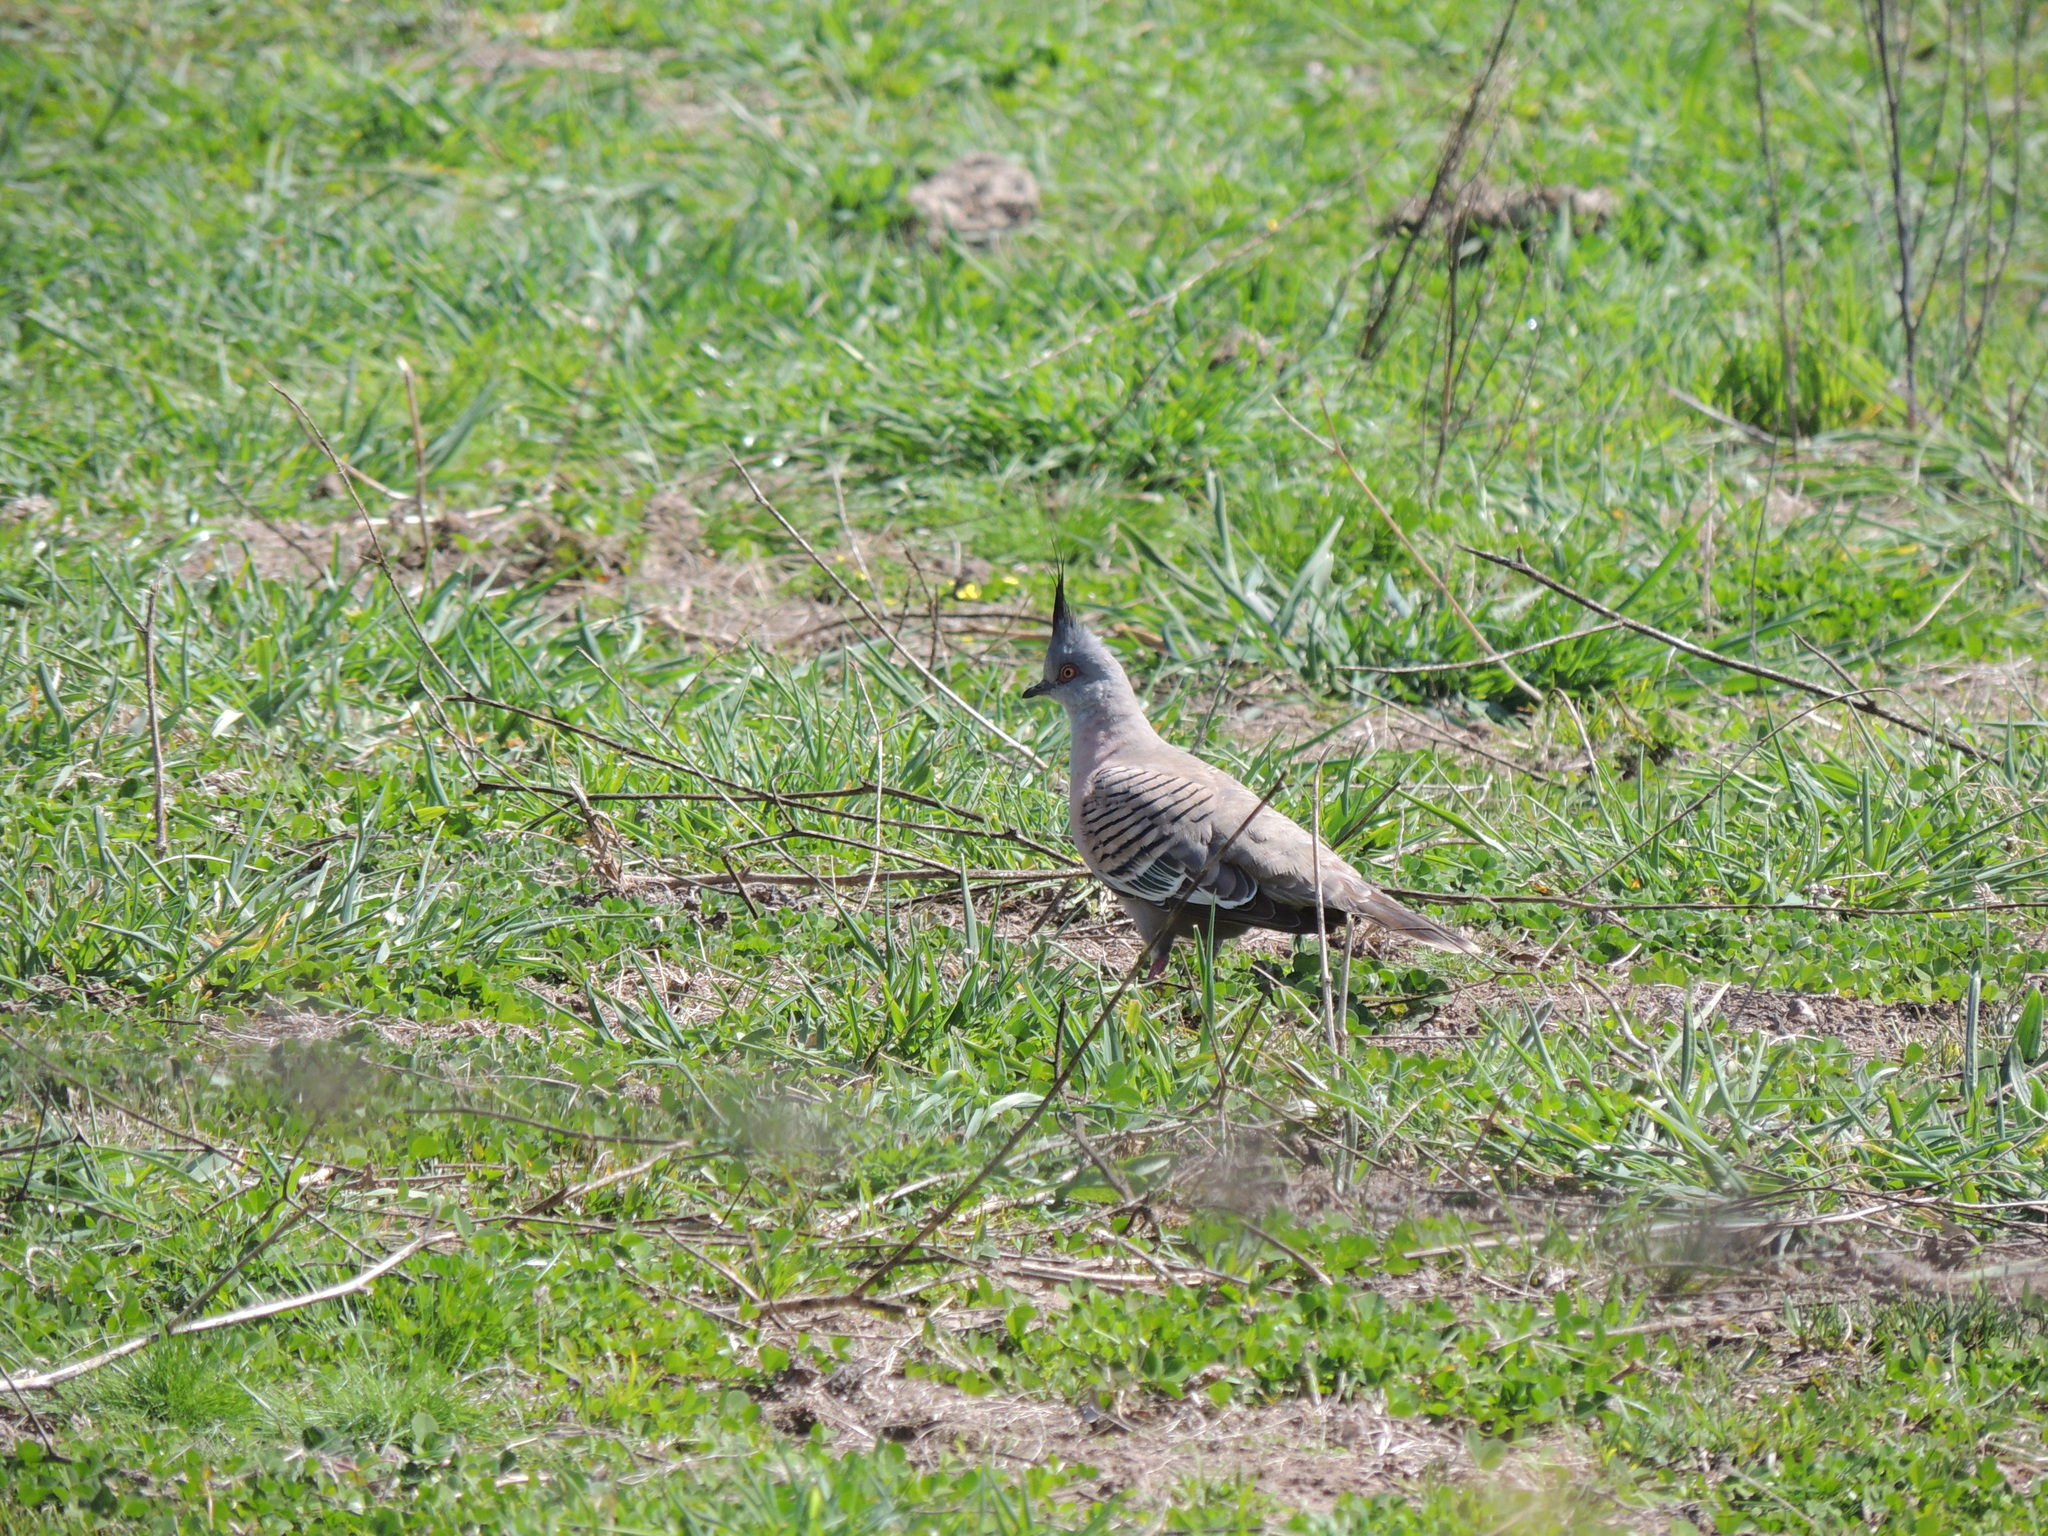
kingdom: Animalia
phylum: Chordata
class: Aves
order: Columbiformes
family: Columbidae
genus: Ocyphaps
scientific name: Ocyphaps lophotes
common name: Crested pigeon
